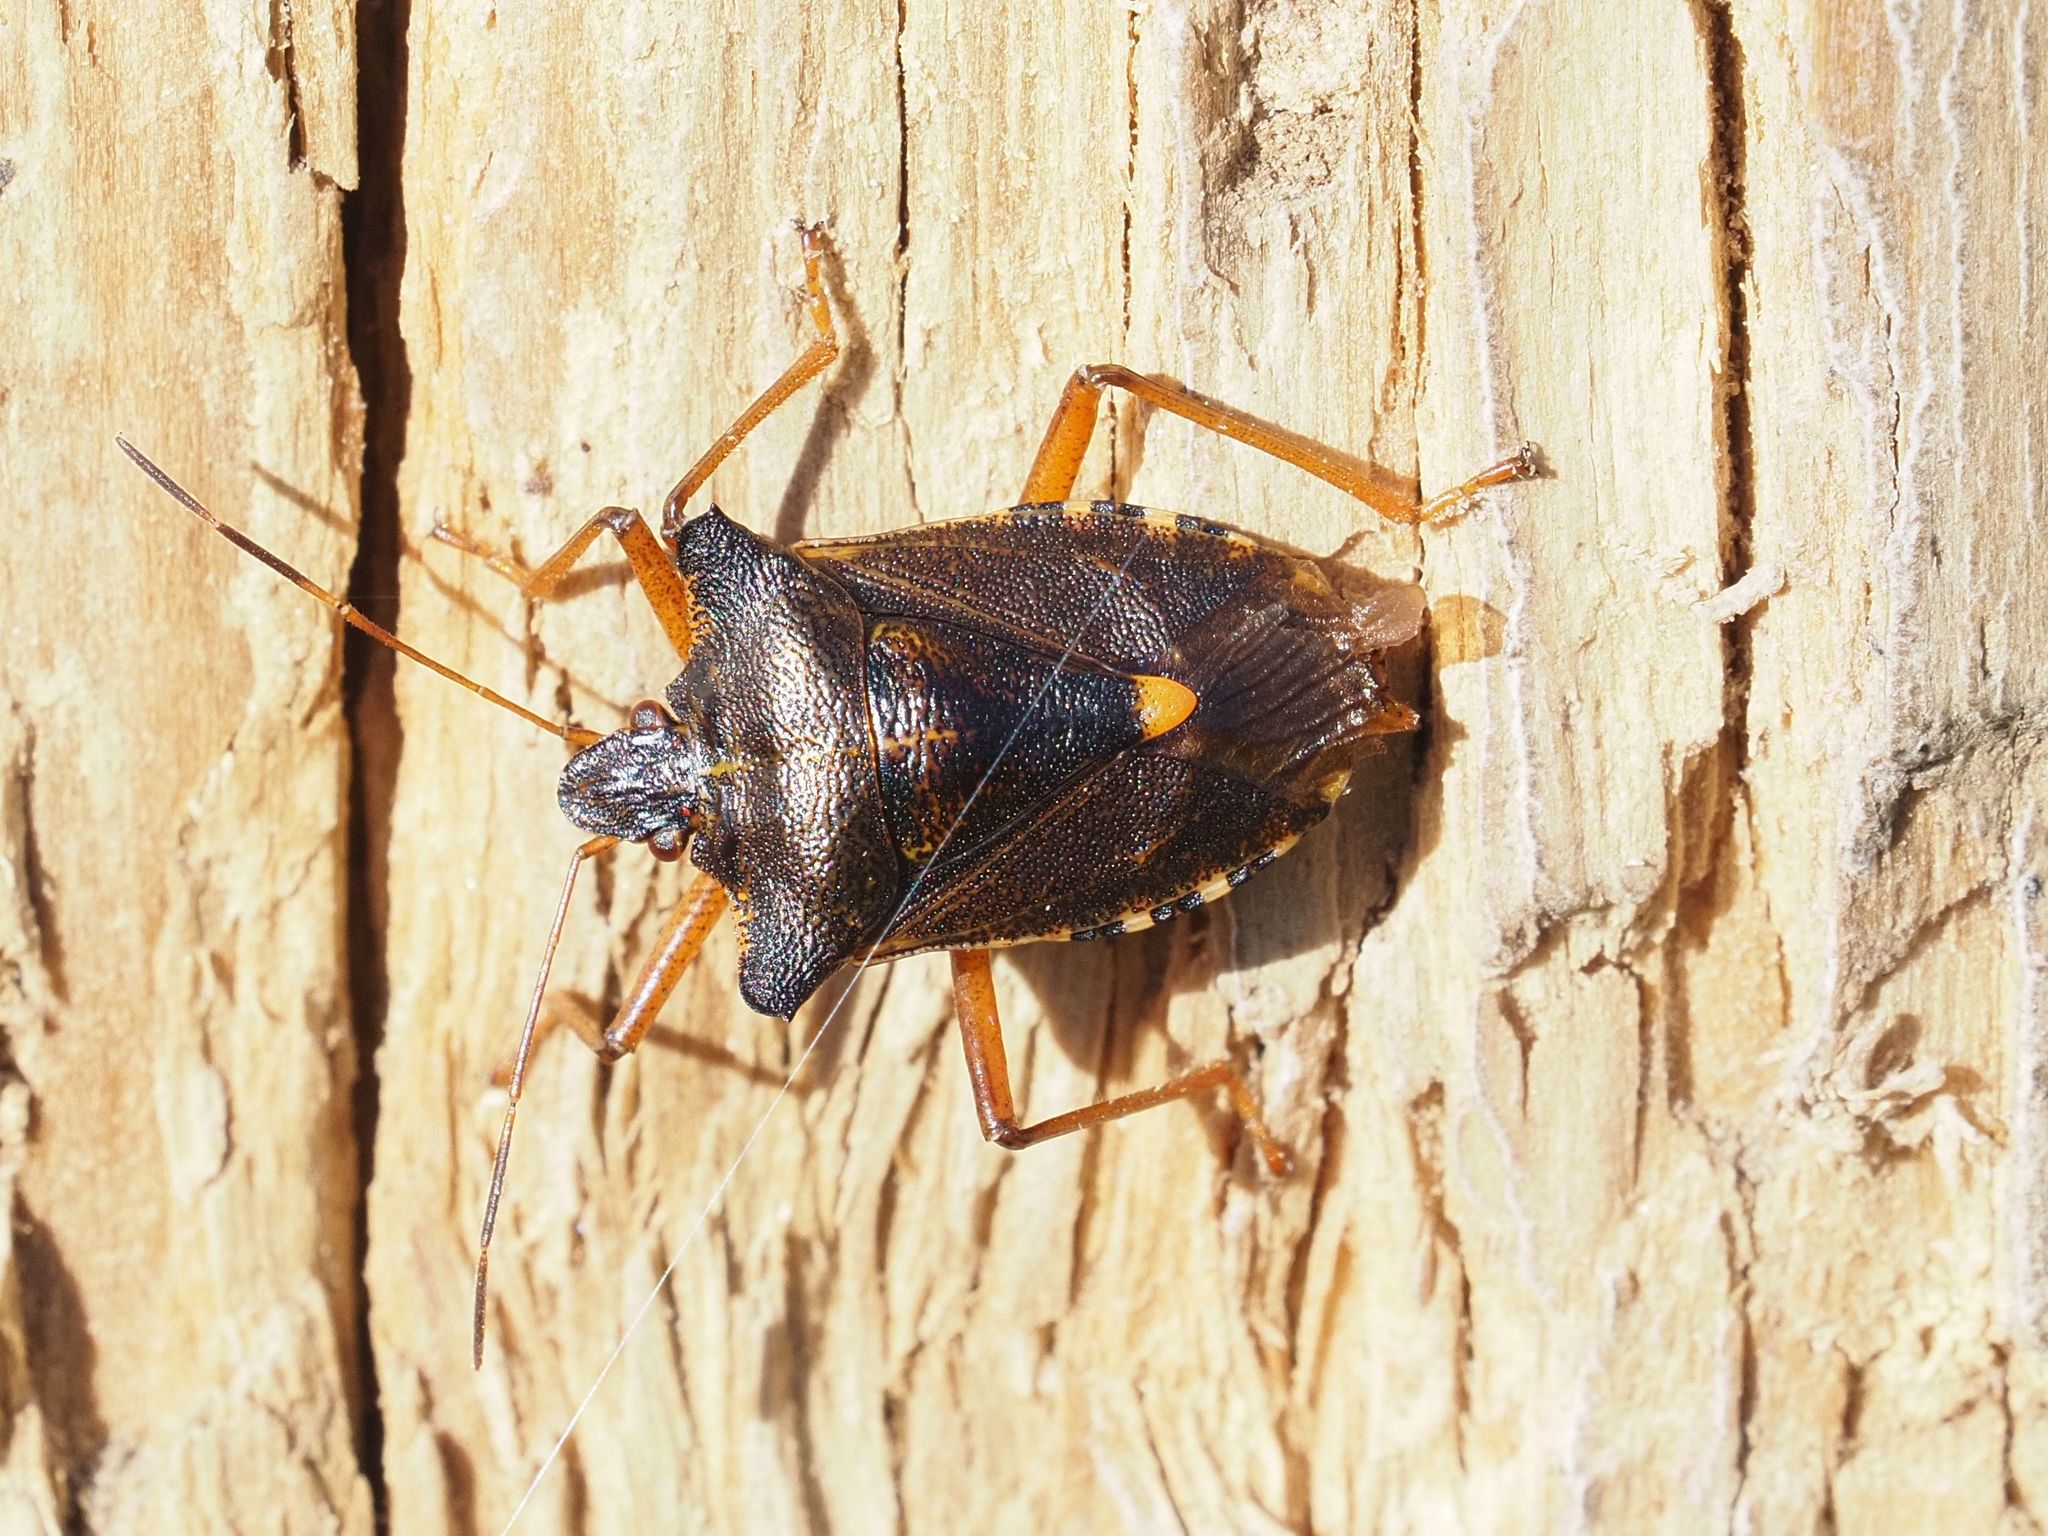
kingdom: Animalia
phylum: Arthropoda
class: Insecta
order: Hemiptera
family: Pentatomidae
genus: Pentatoma
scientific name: Pentatoma rufipes
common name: Forest bug
